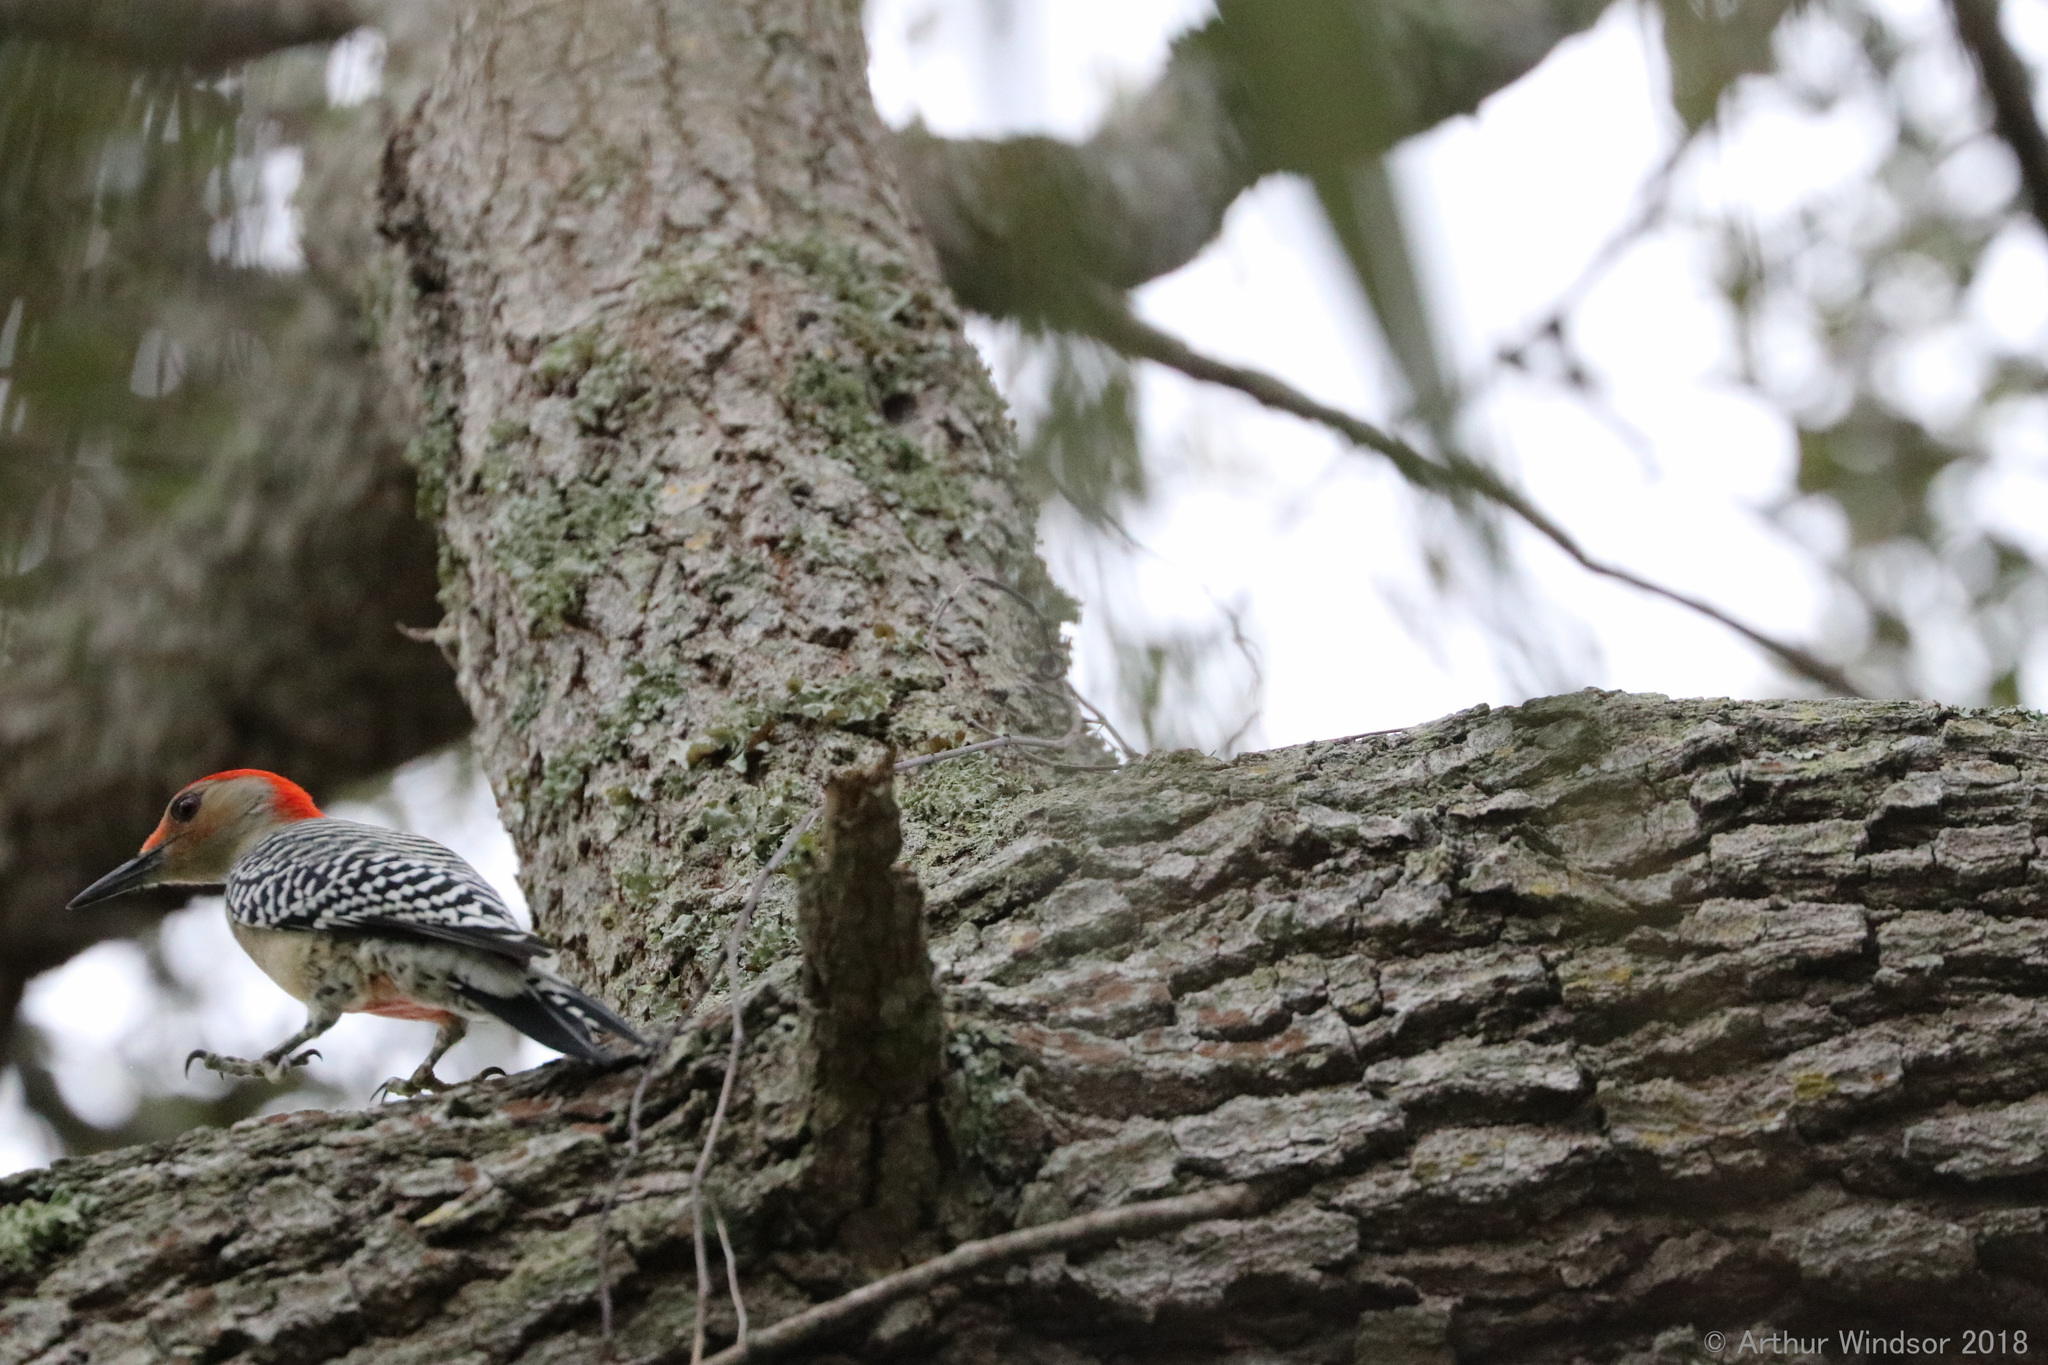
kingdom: Animalia
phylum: Chordata
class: Aves
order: Piciformes
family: Picidae
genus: Melanerpes
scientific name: Melanerpes carolinus
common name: Red-bellied woodpecker
